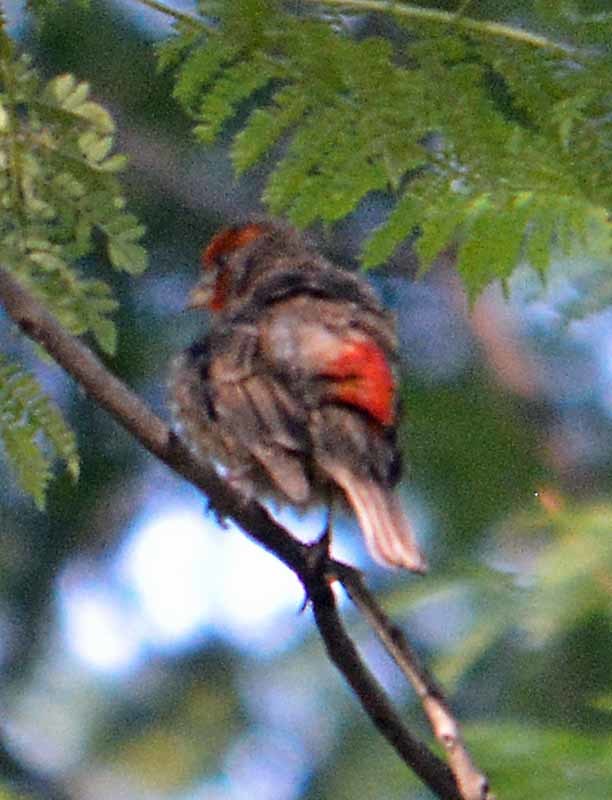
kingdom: Animalia
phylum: Chordata
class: Aves
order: Passeriformes
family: Fringillidae
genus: Haemorhous
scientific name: Haemorhous mexicanus
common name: House finch
